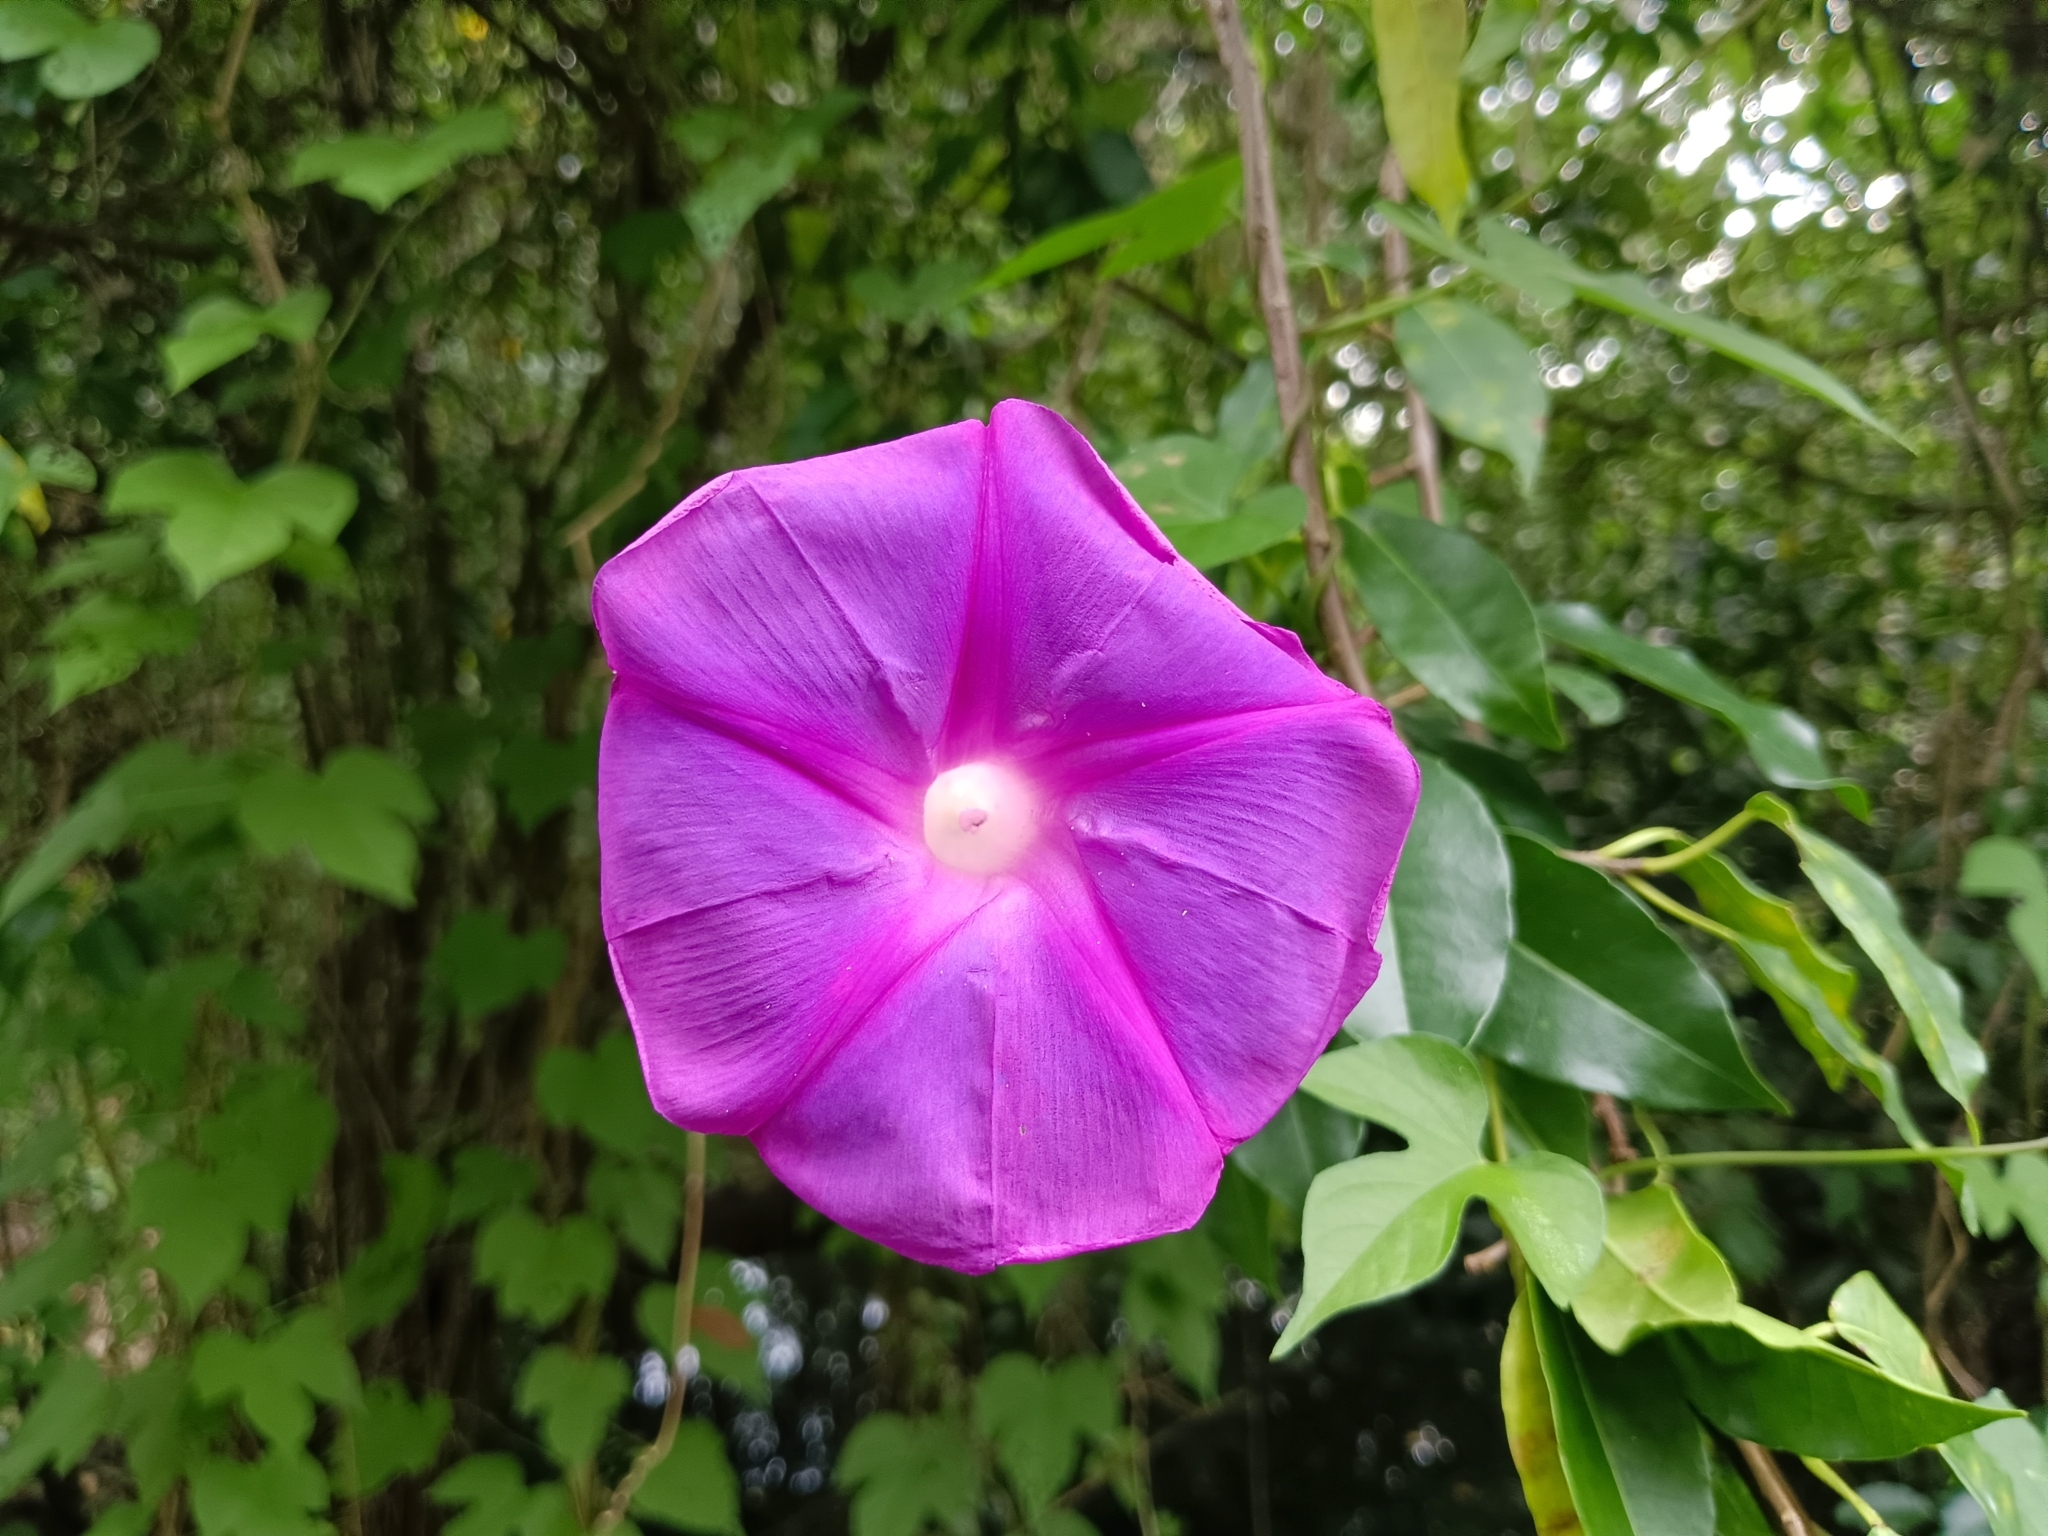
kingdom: Plantae
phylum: Tracheophyta
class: Magnoliopsida
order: Solanales
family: Convolvulaceae
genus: Ipomoea
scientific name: Ipomoea indica
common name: Blue dawnflower
